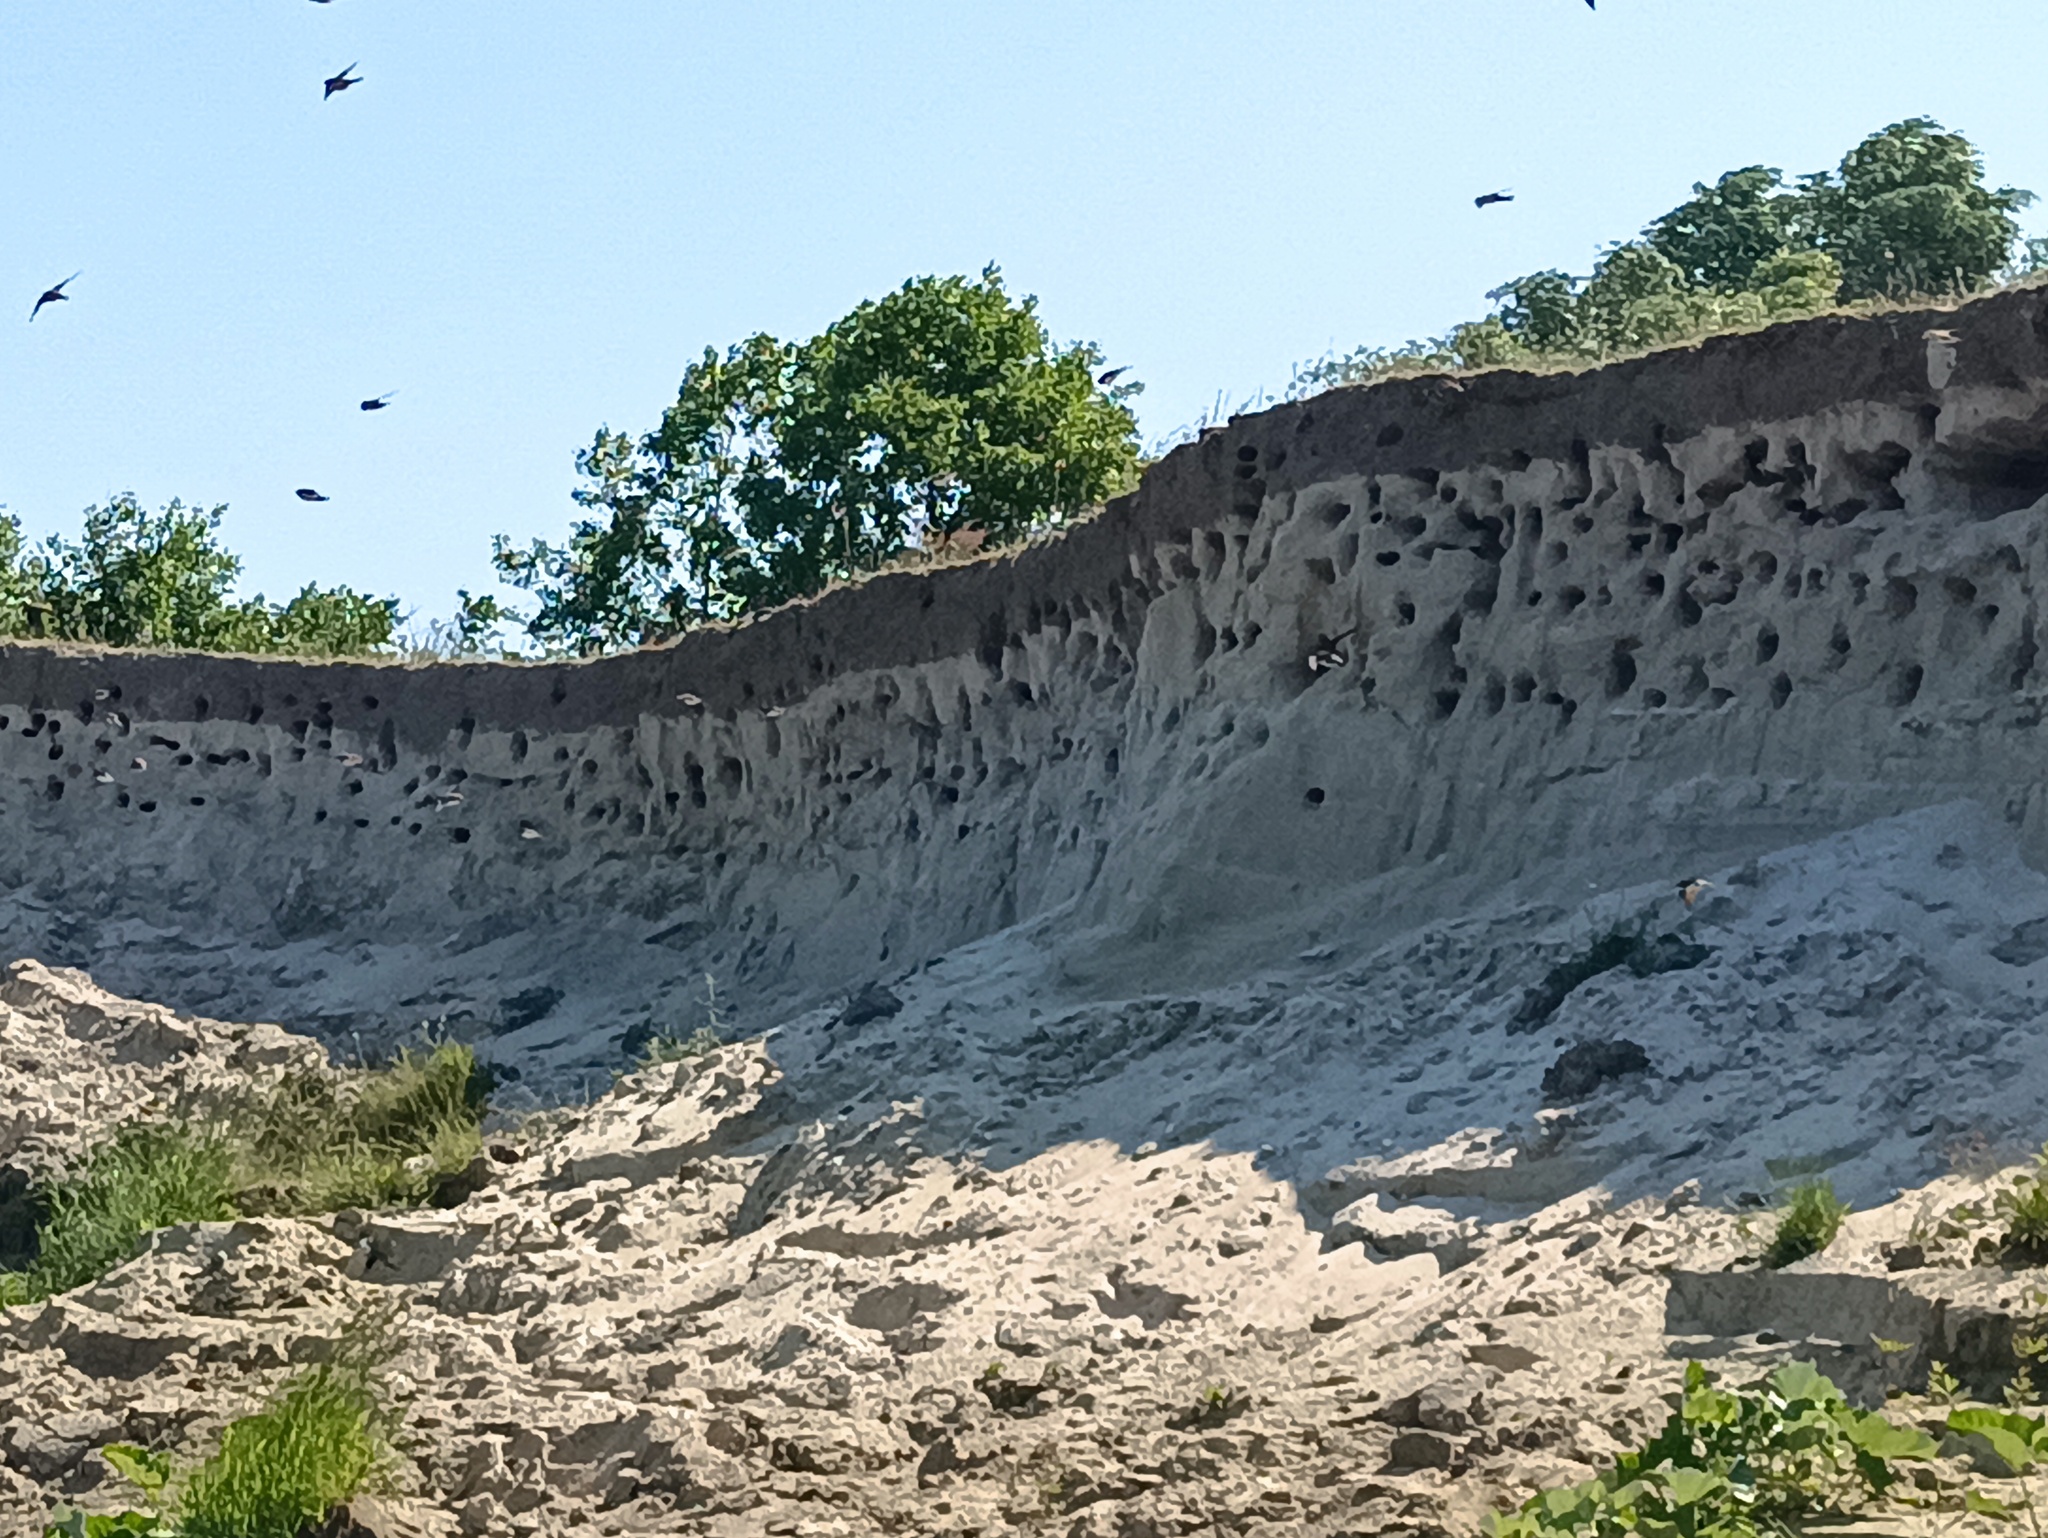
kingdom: Animalia
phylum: Chordata
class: Aves
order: Passeriformes
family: Hirundinidae
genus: Riparia
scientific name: Riparia riparia
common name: Sand martin
